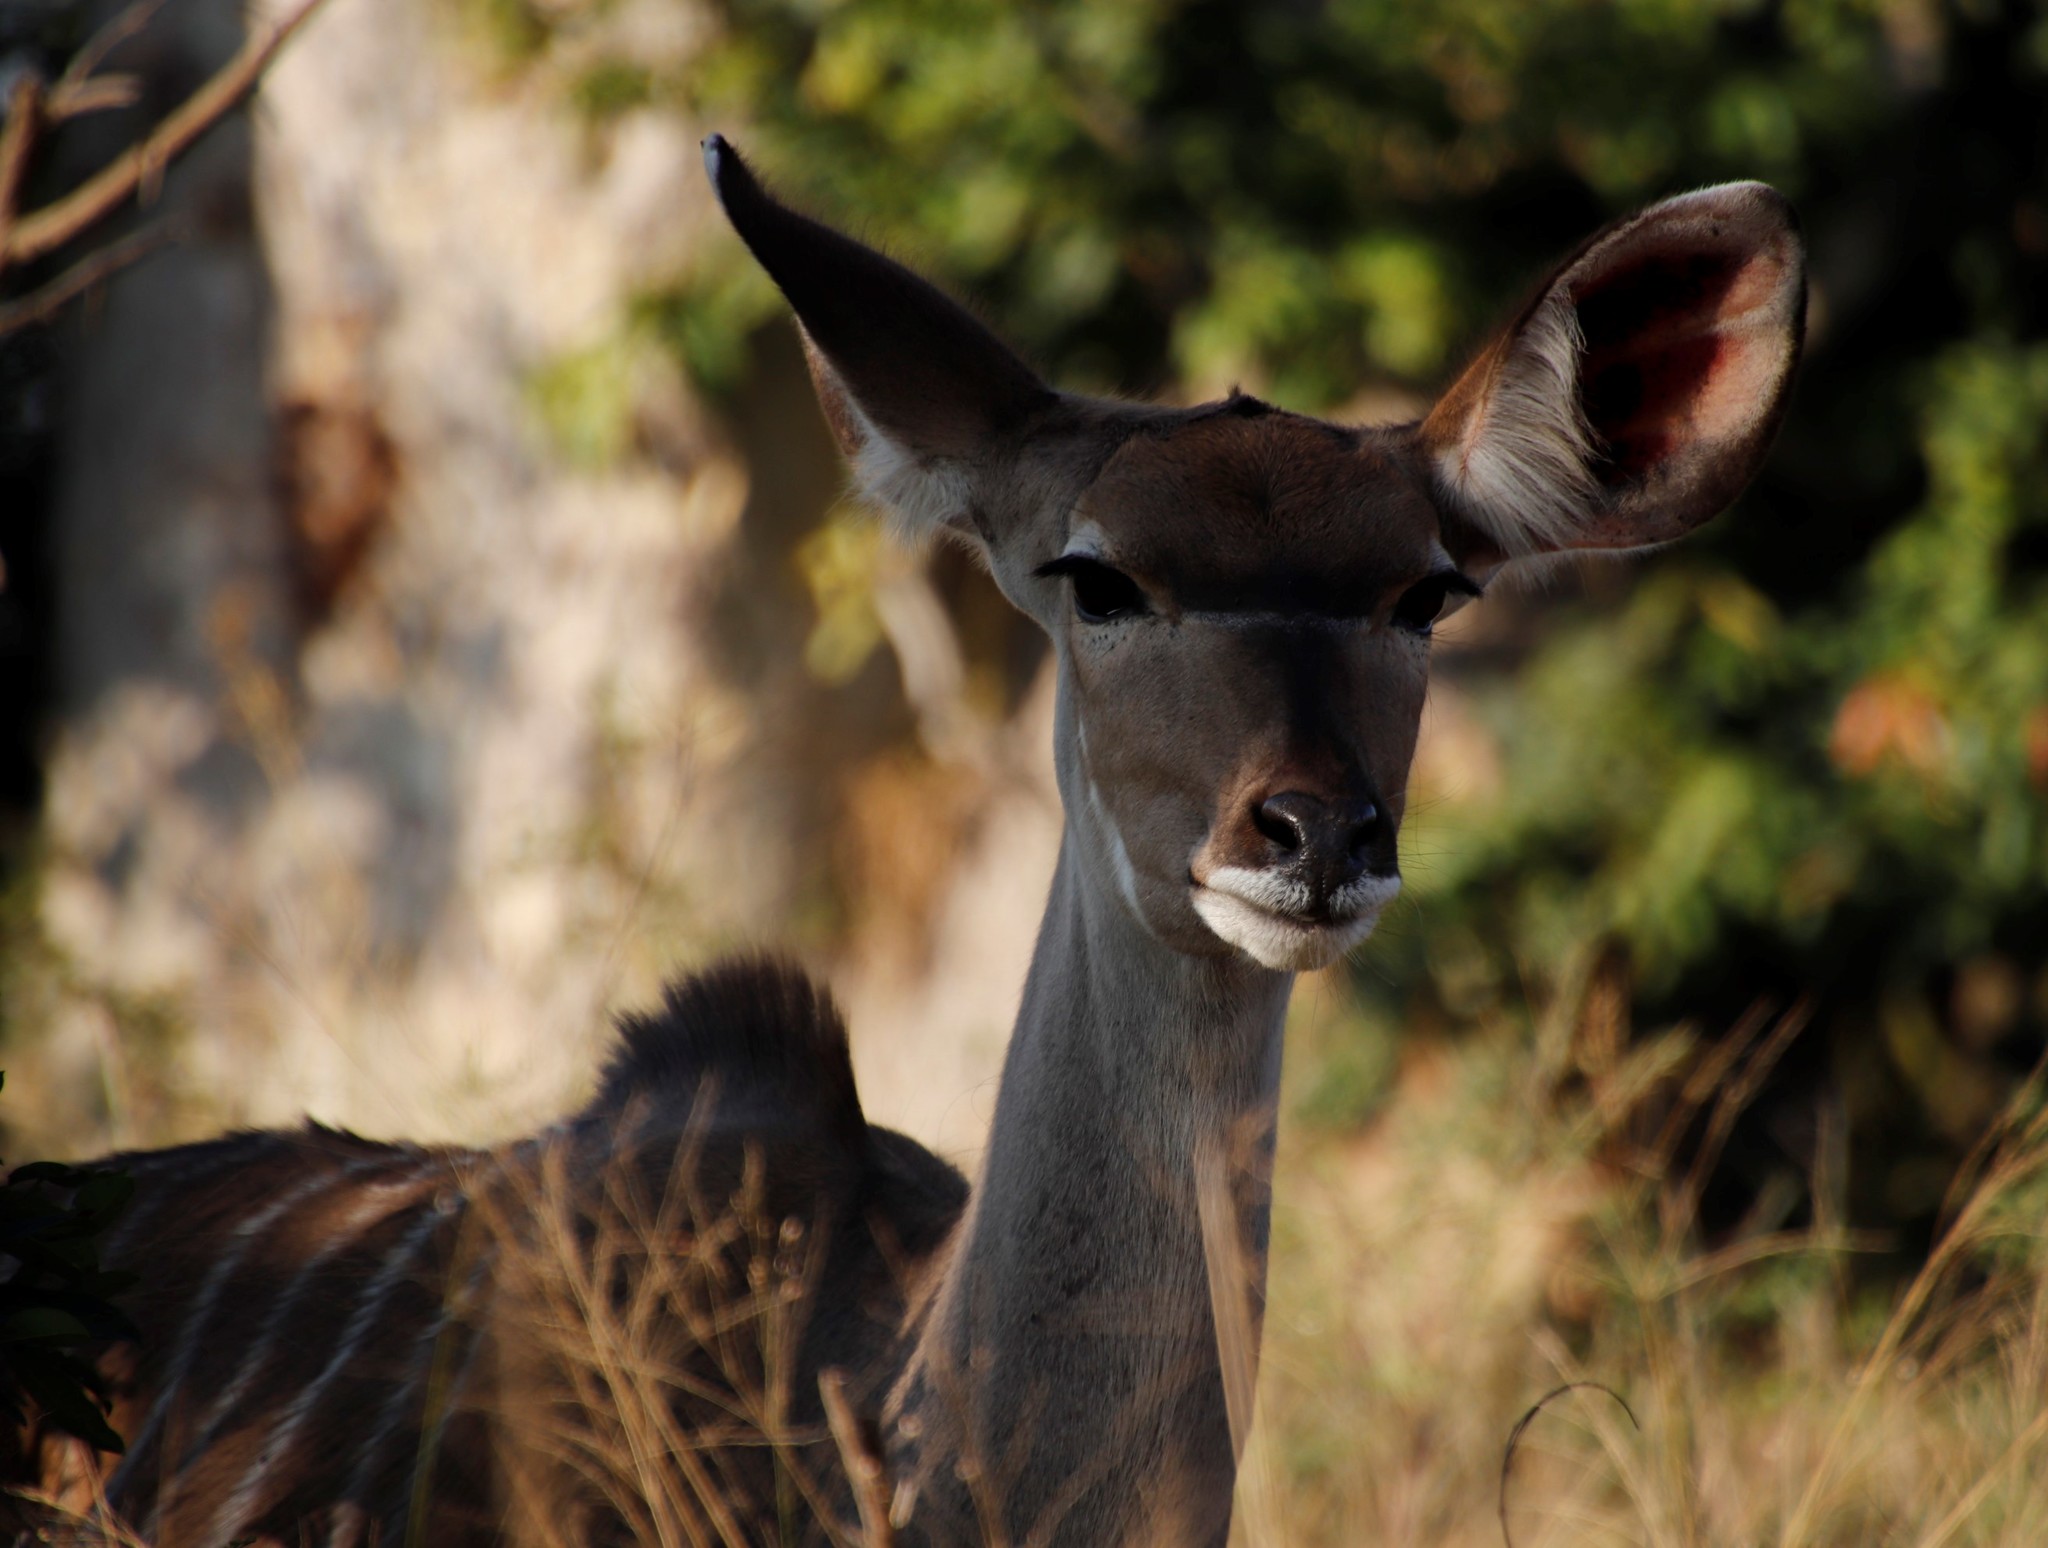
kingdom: Animalia
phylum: Chordata
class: Mammalia
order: Artiodactyla
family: Bovidae
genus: Tragelaphus
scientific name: Tragelaphus strepsiceros
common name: Greater kudu
